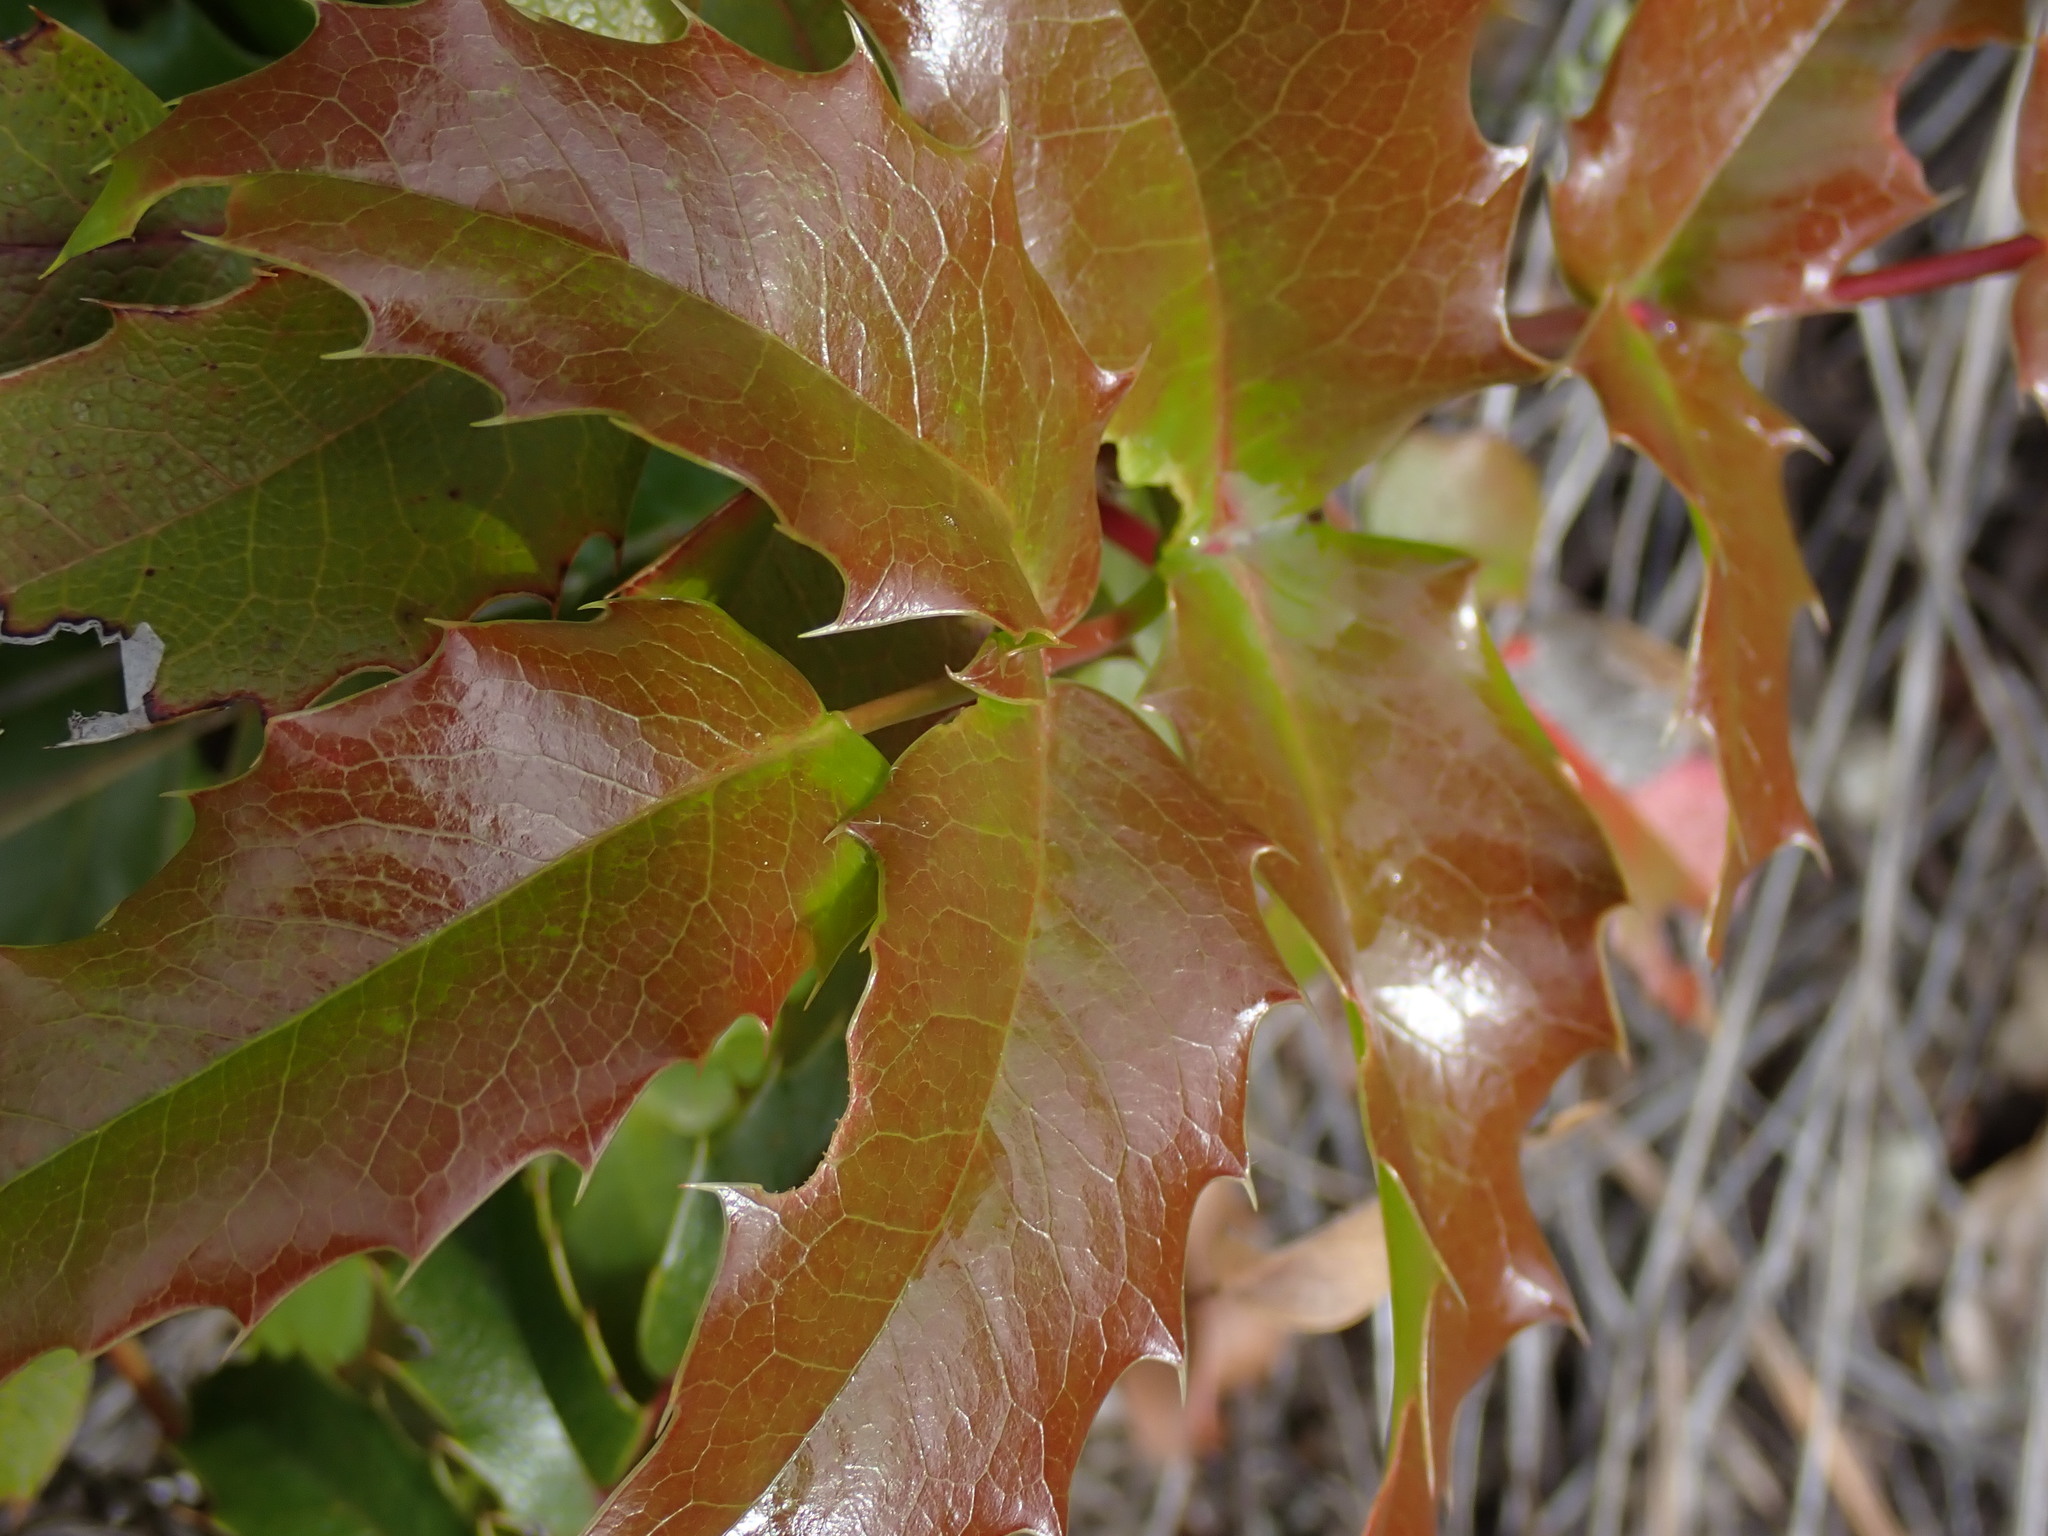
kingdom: Plantae
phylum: Tracheophyta
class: Magnoliopsida
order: Ranunculales
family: Berberidaceae
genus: Mahonia
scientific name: Mahonia aquifolium
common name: Oregon-grape
